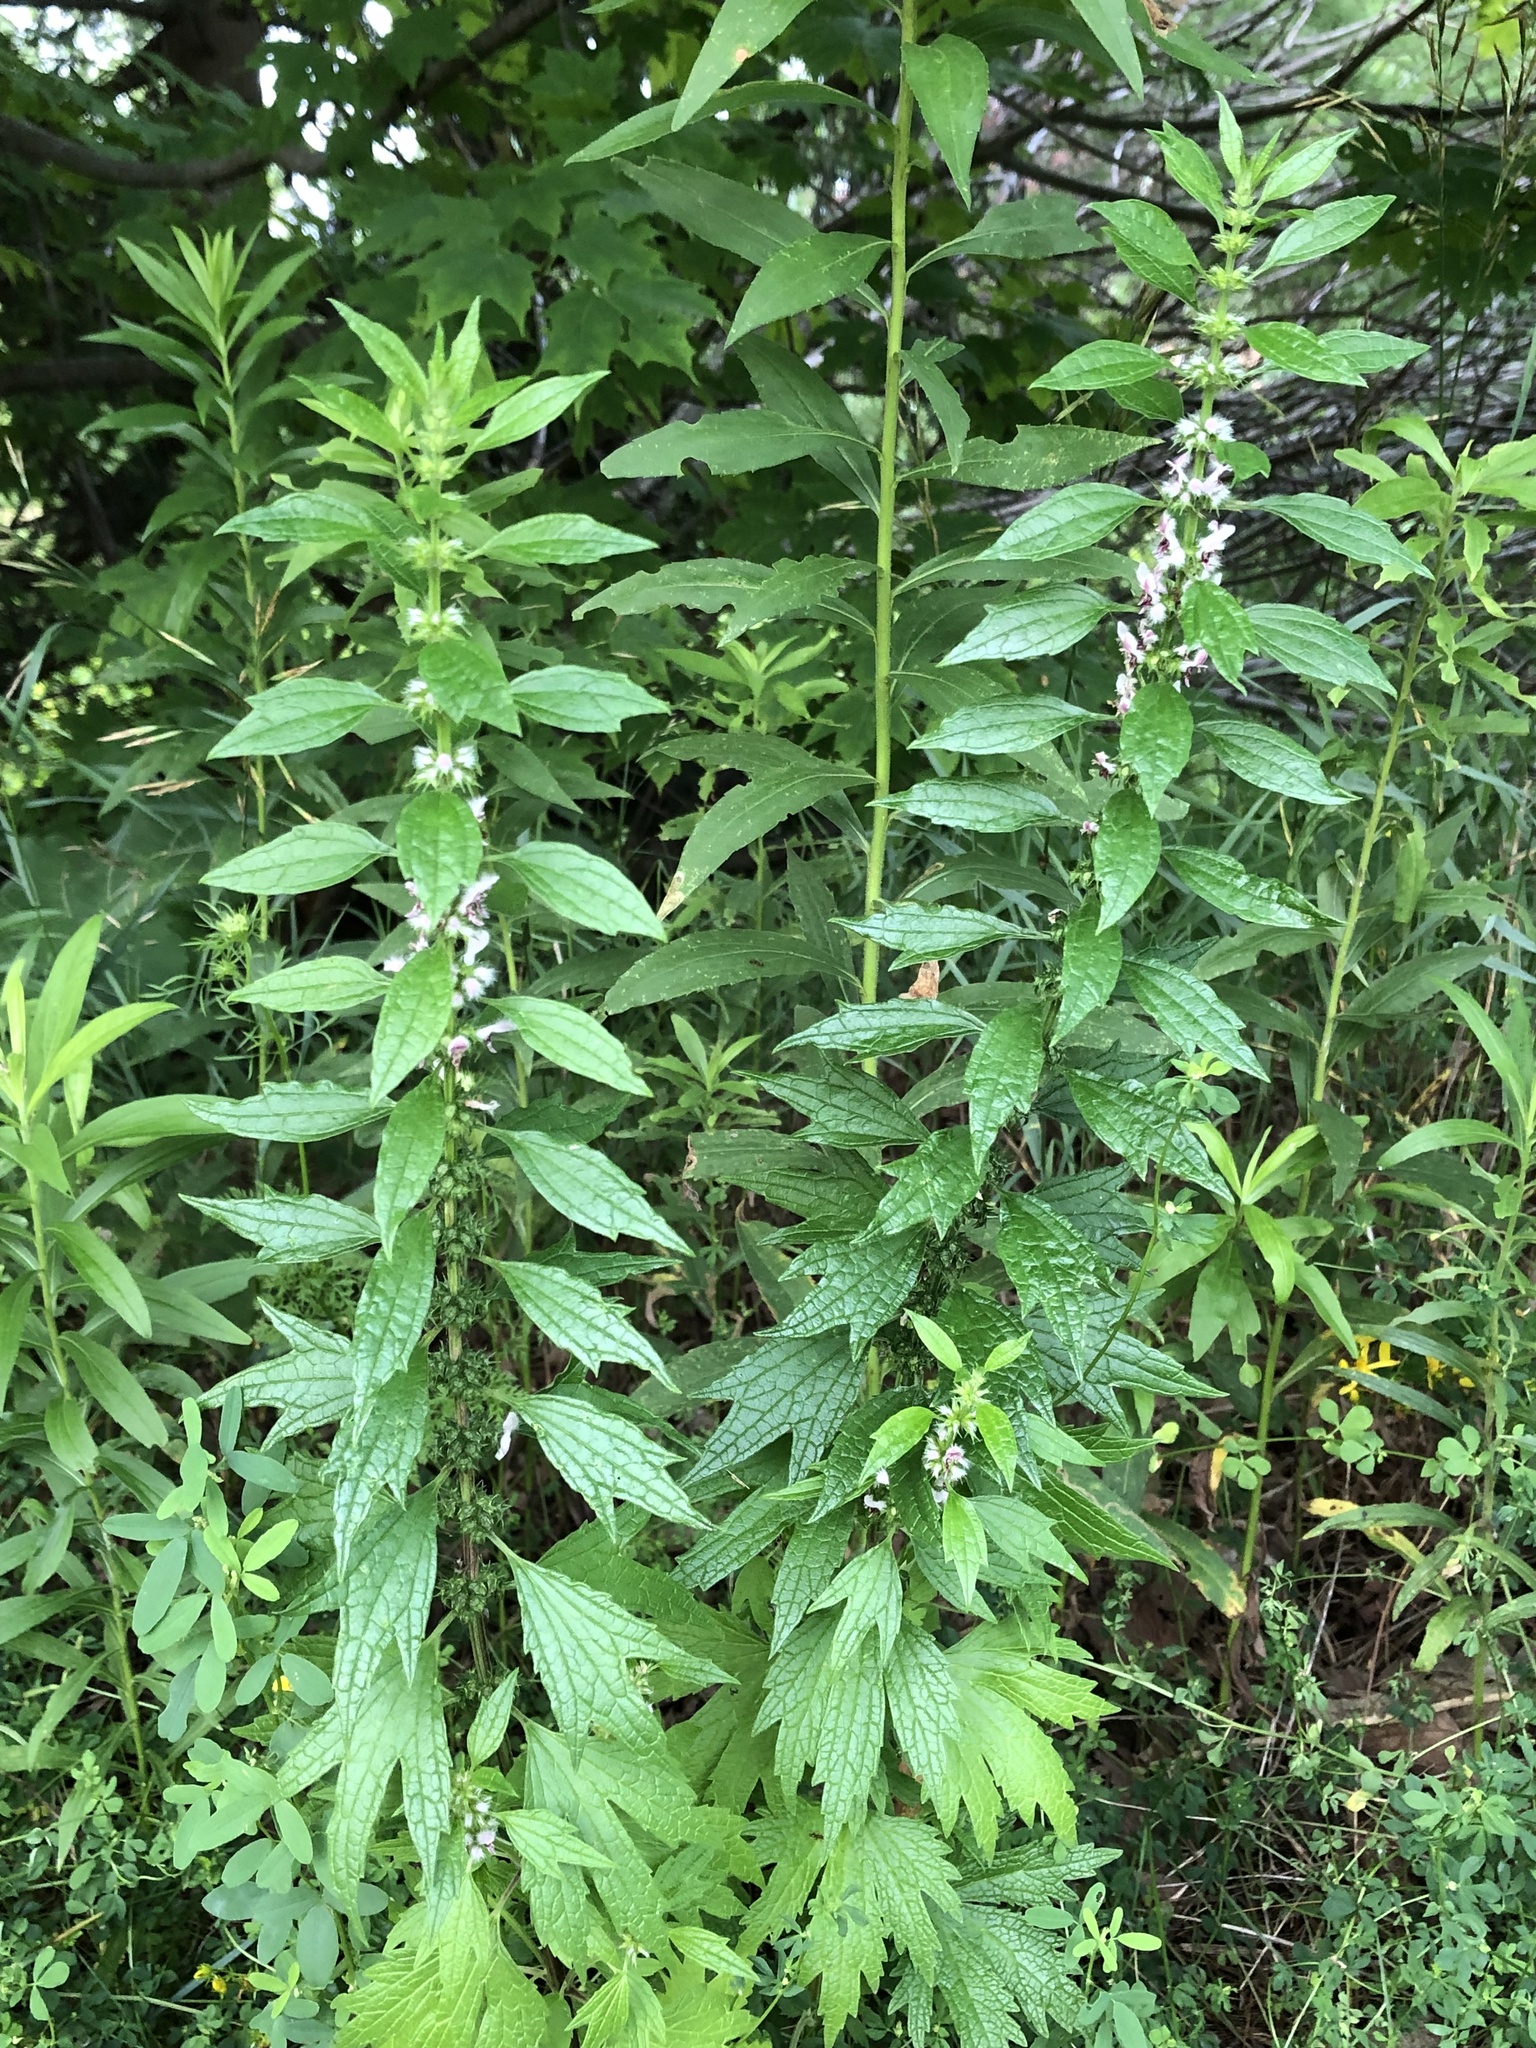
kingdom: Plantae
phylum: Tracheophyta
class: Magnoliopsida
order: Lamiales
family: Lamiaceae
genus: Leonurus
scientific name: Leonurus cardiaca
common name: Motherwort
